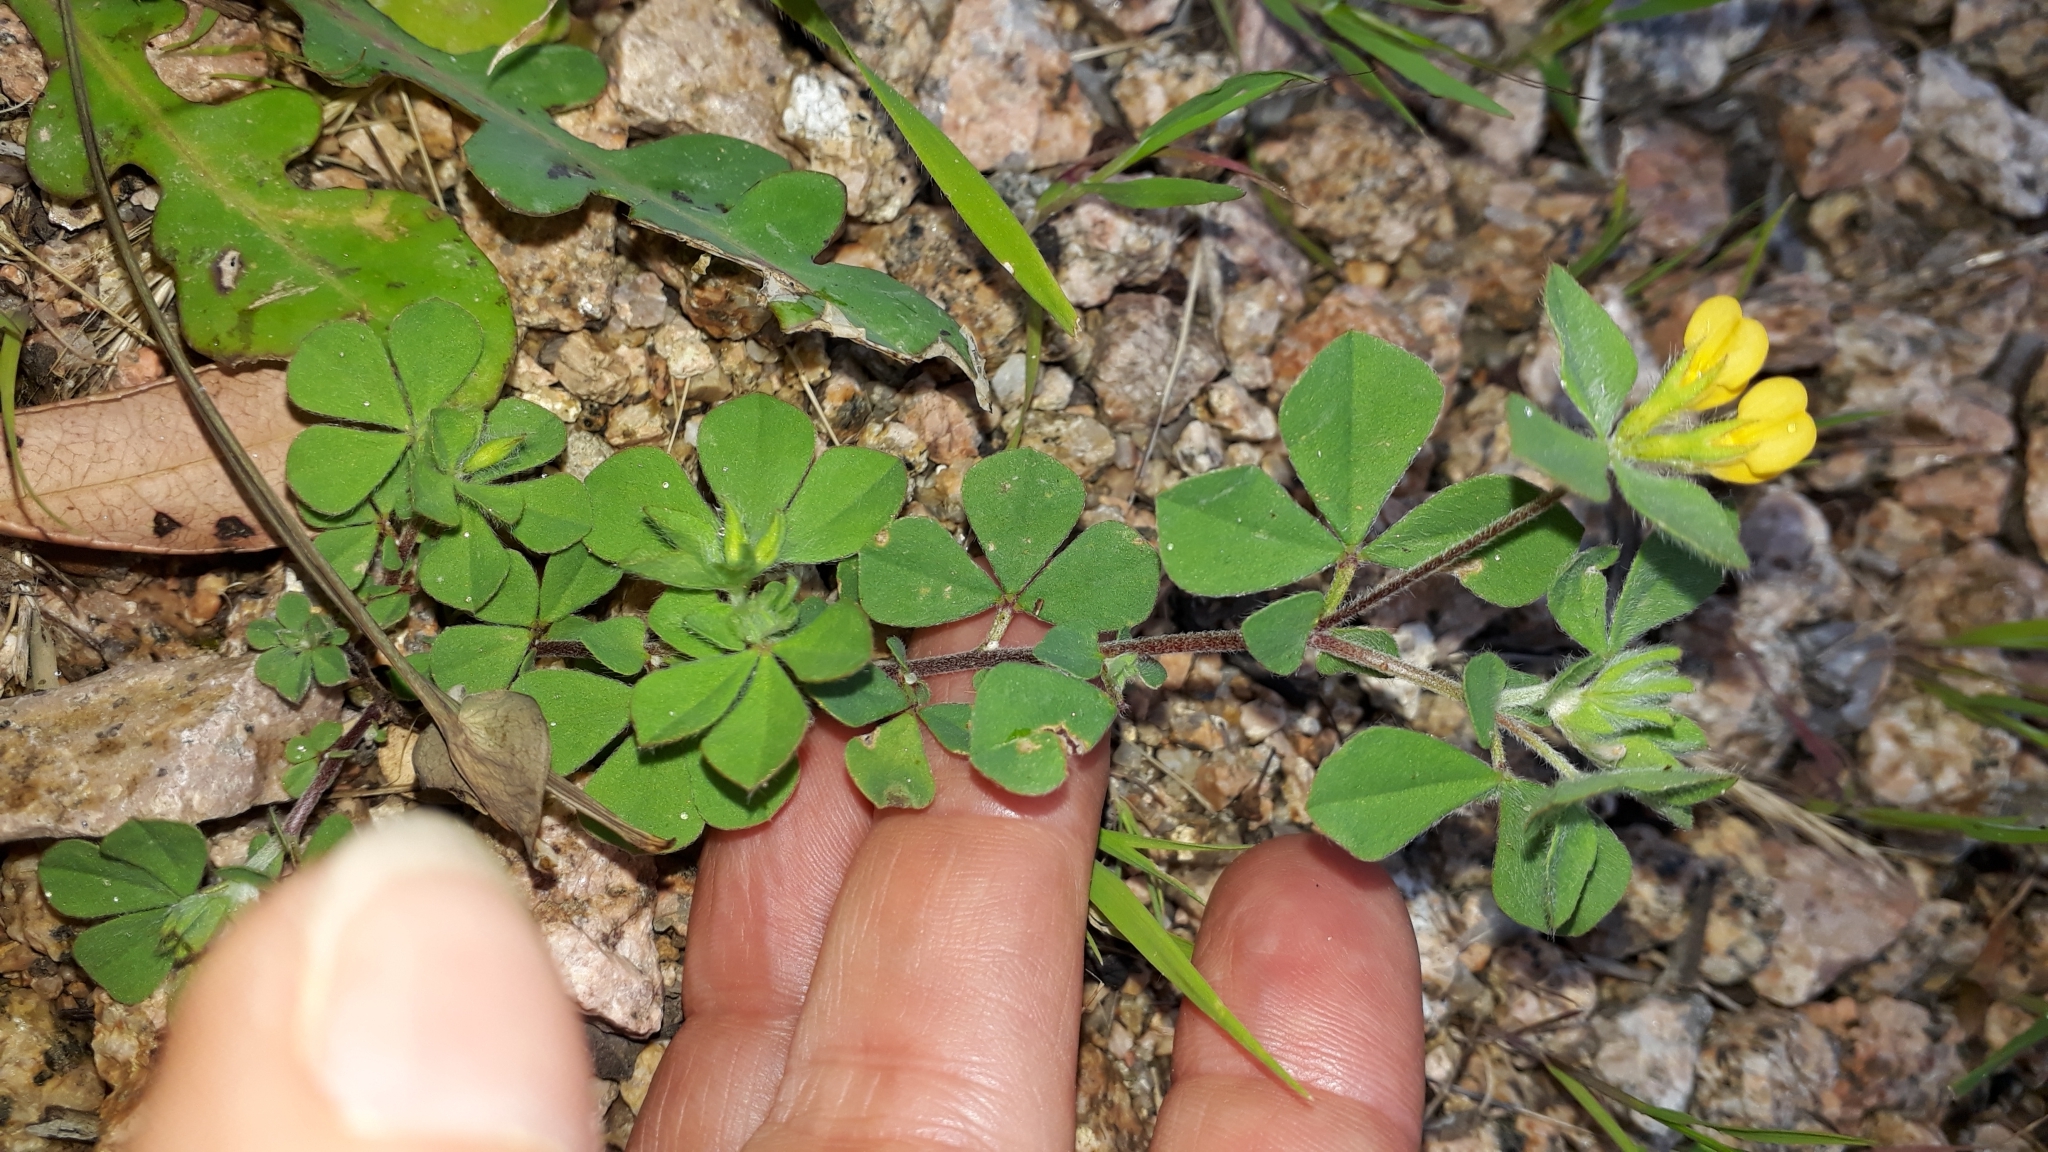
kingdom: Plantae
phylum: Tracheophyta
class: Magnoliopsida
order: Fabales
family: Fabaceae
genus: Lotus
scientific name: Lotus ornithopodioides
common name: Southern bird's-foot trefoil
